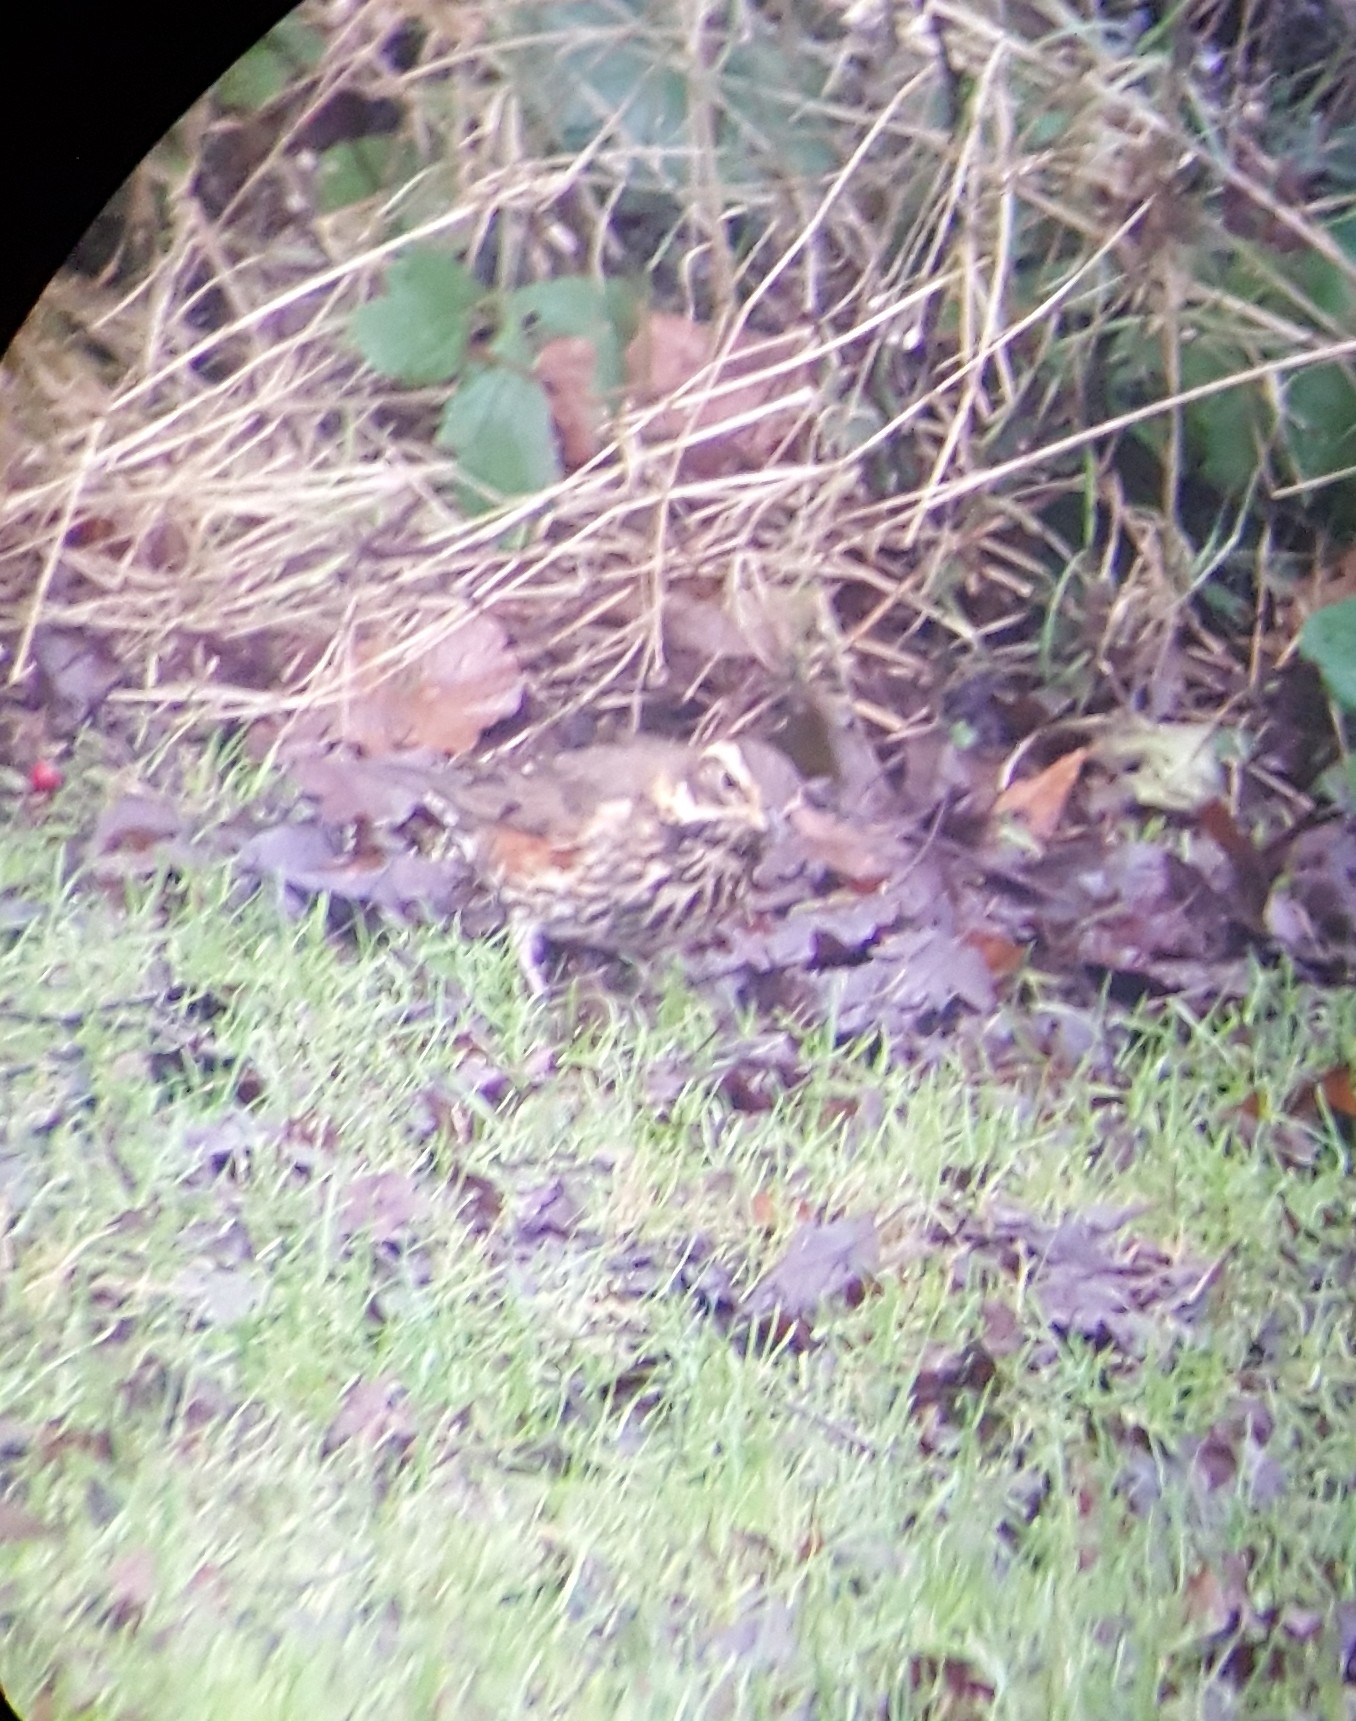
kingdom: Animalia
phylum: Chordata
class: Aves
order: Passeriformes
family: Turdidae
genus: Turdus
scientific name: Turdus iliacus
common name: Redwing
